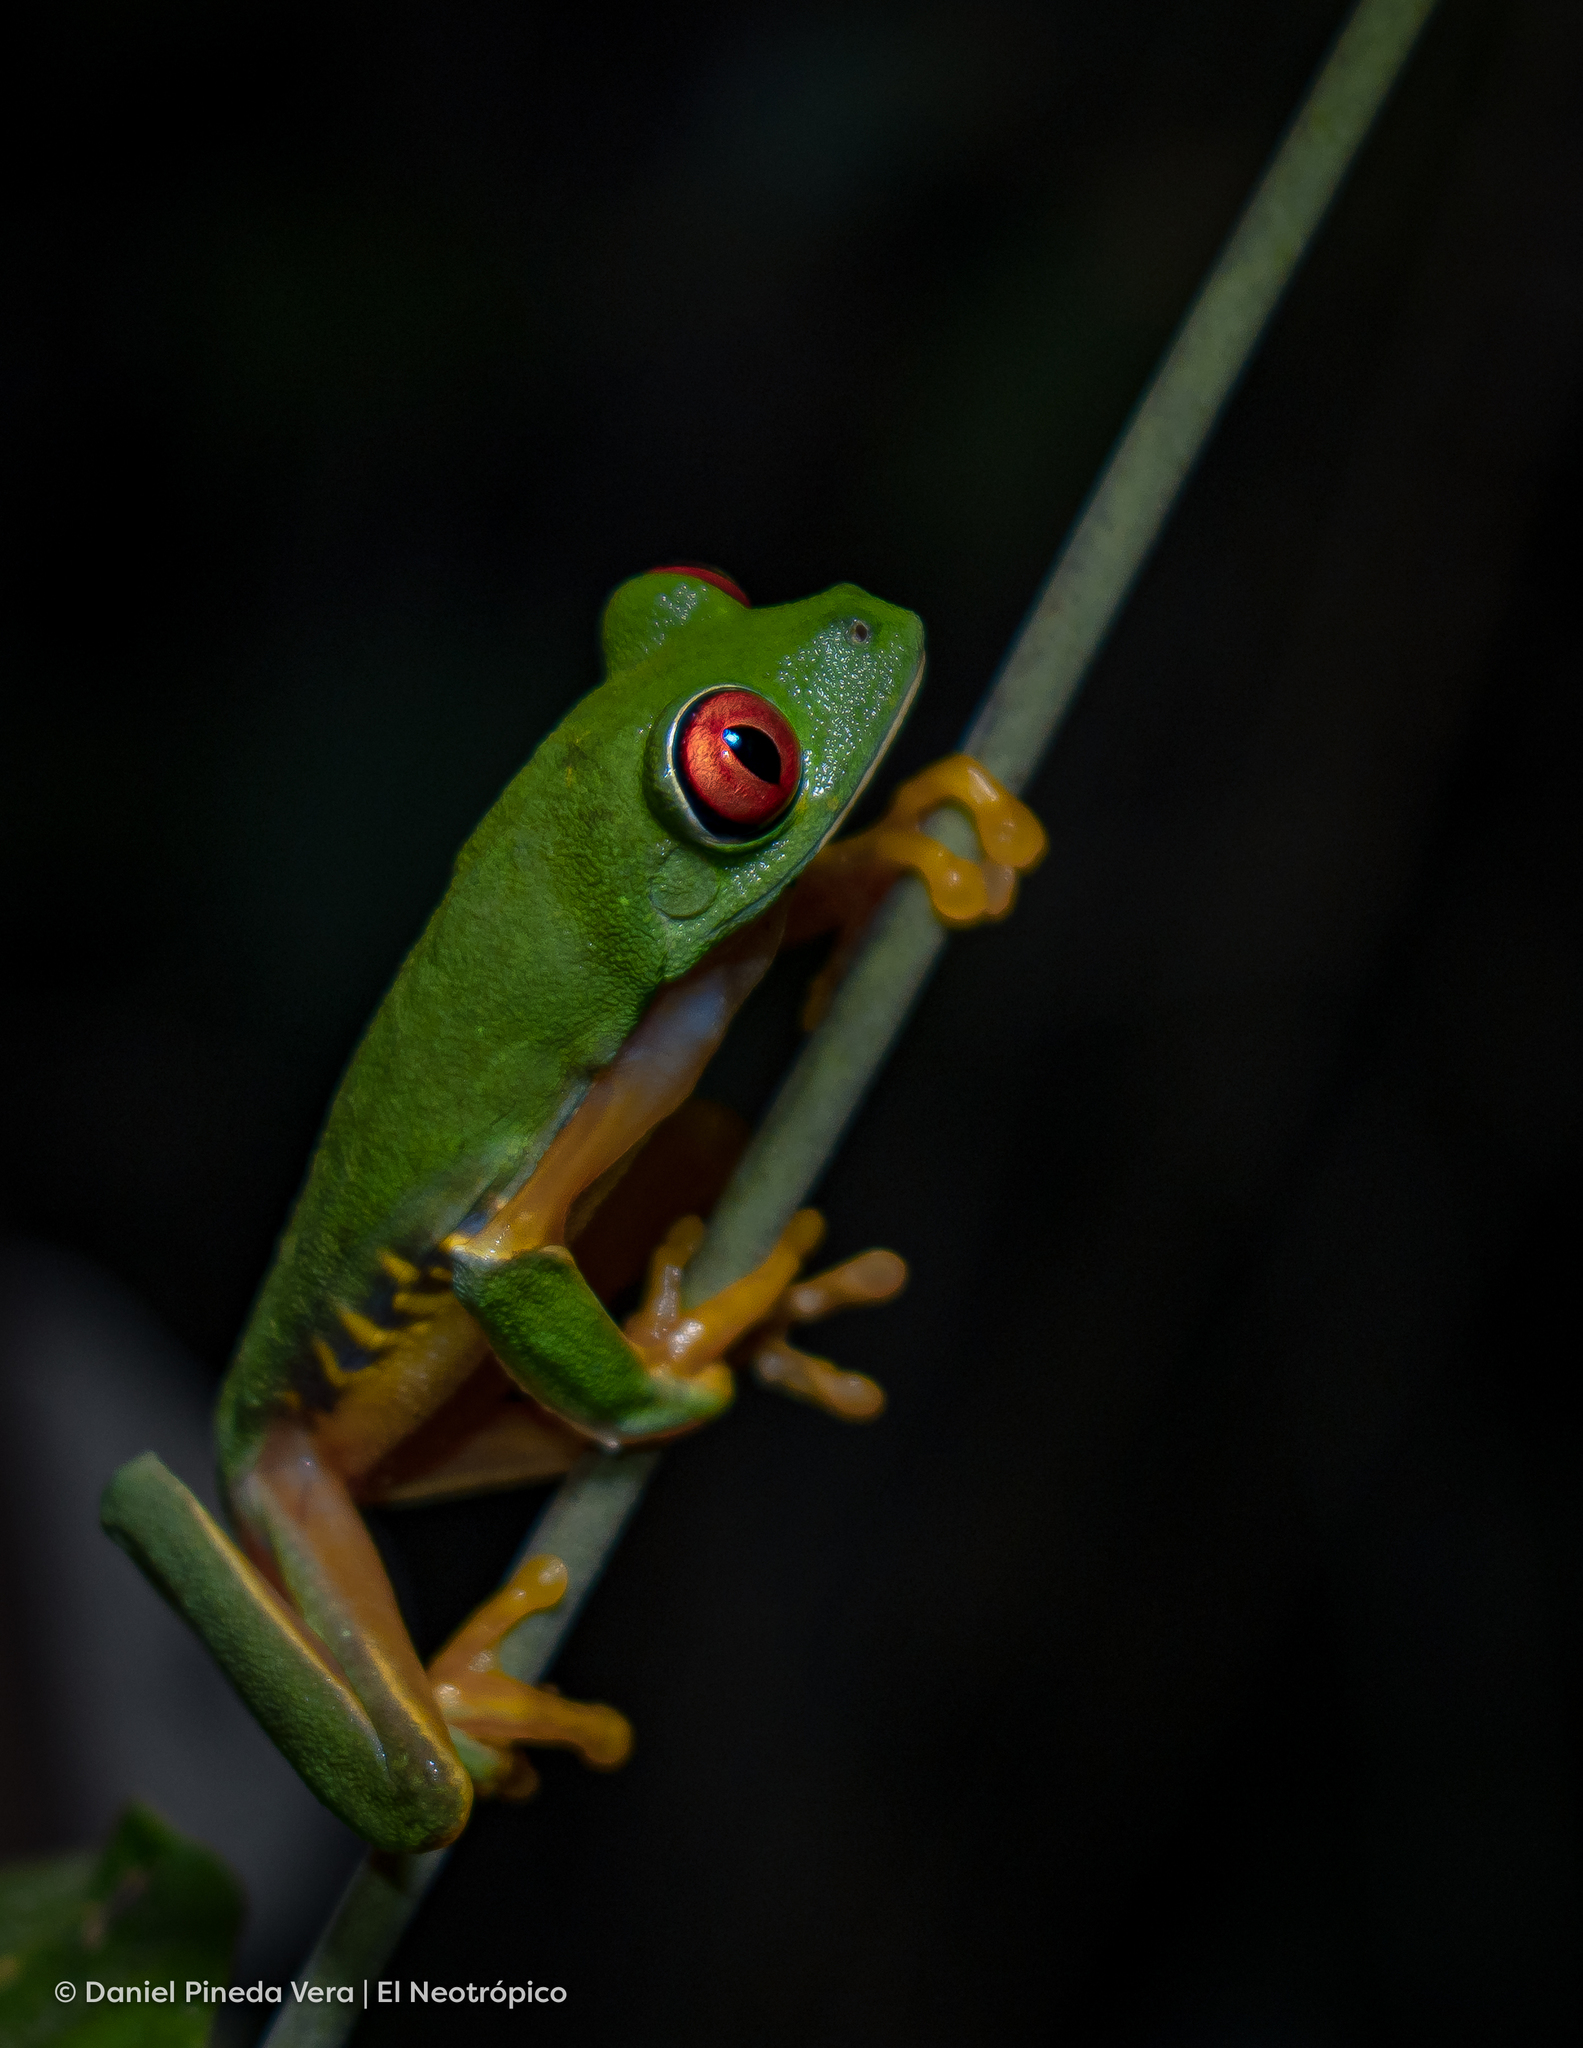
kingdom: Animalia
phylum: Chordata
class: Amphibia
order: Anura
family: Phyllomedusidae
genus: Agalychnis
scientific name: Agalychnis
